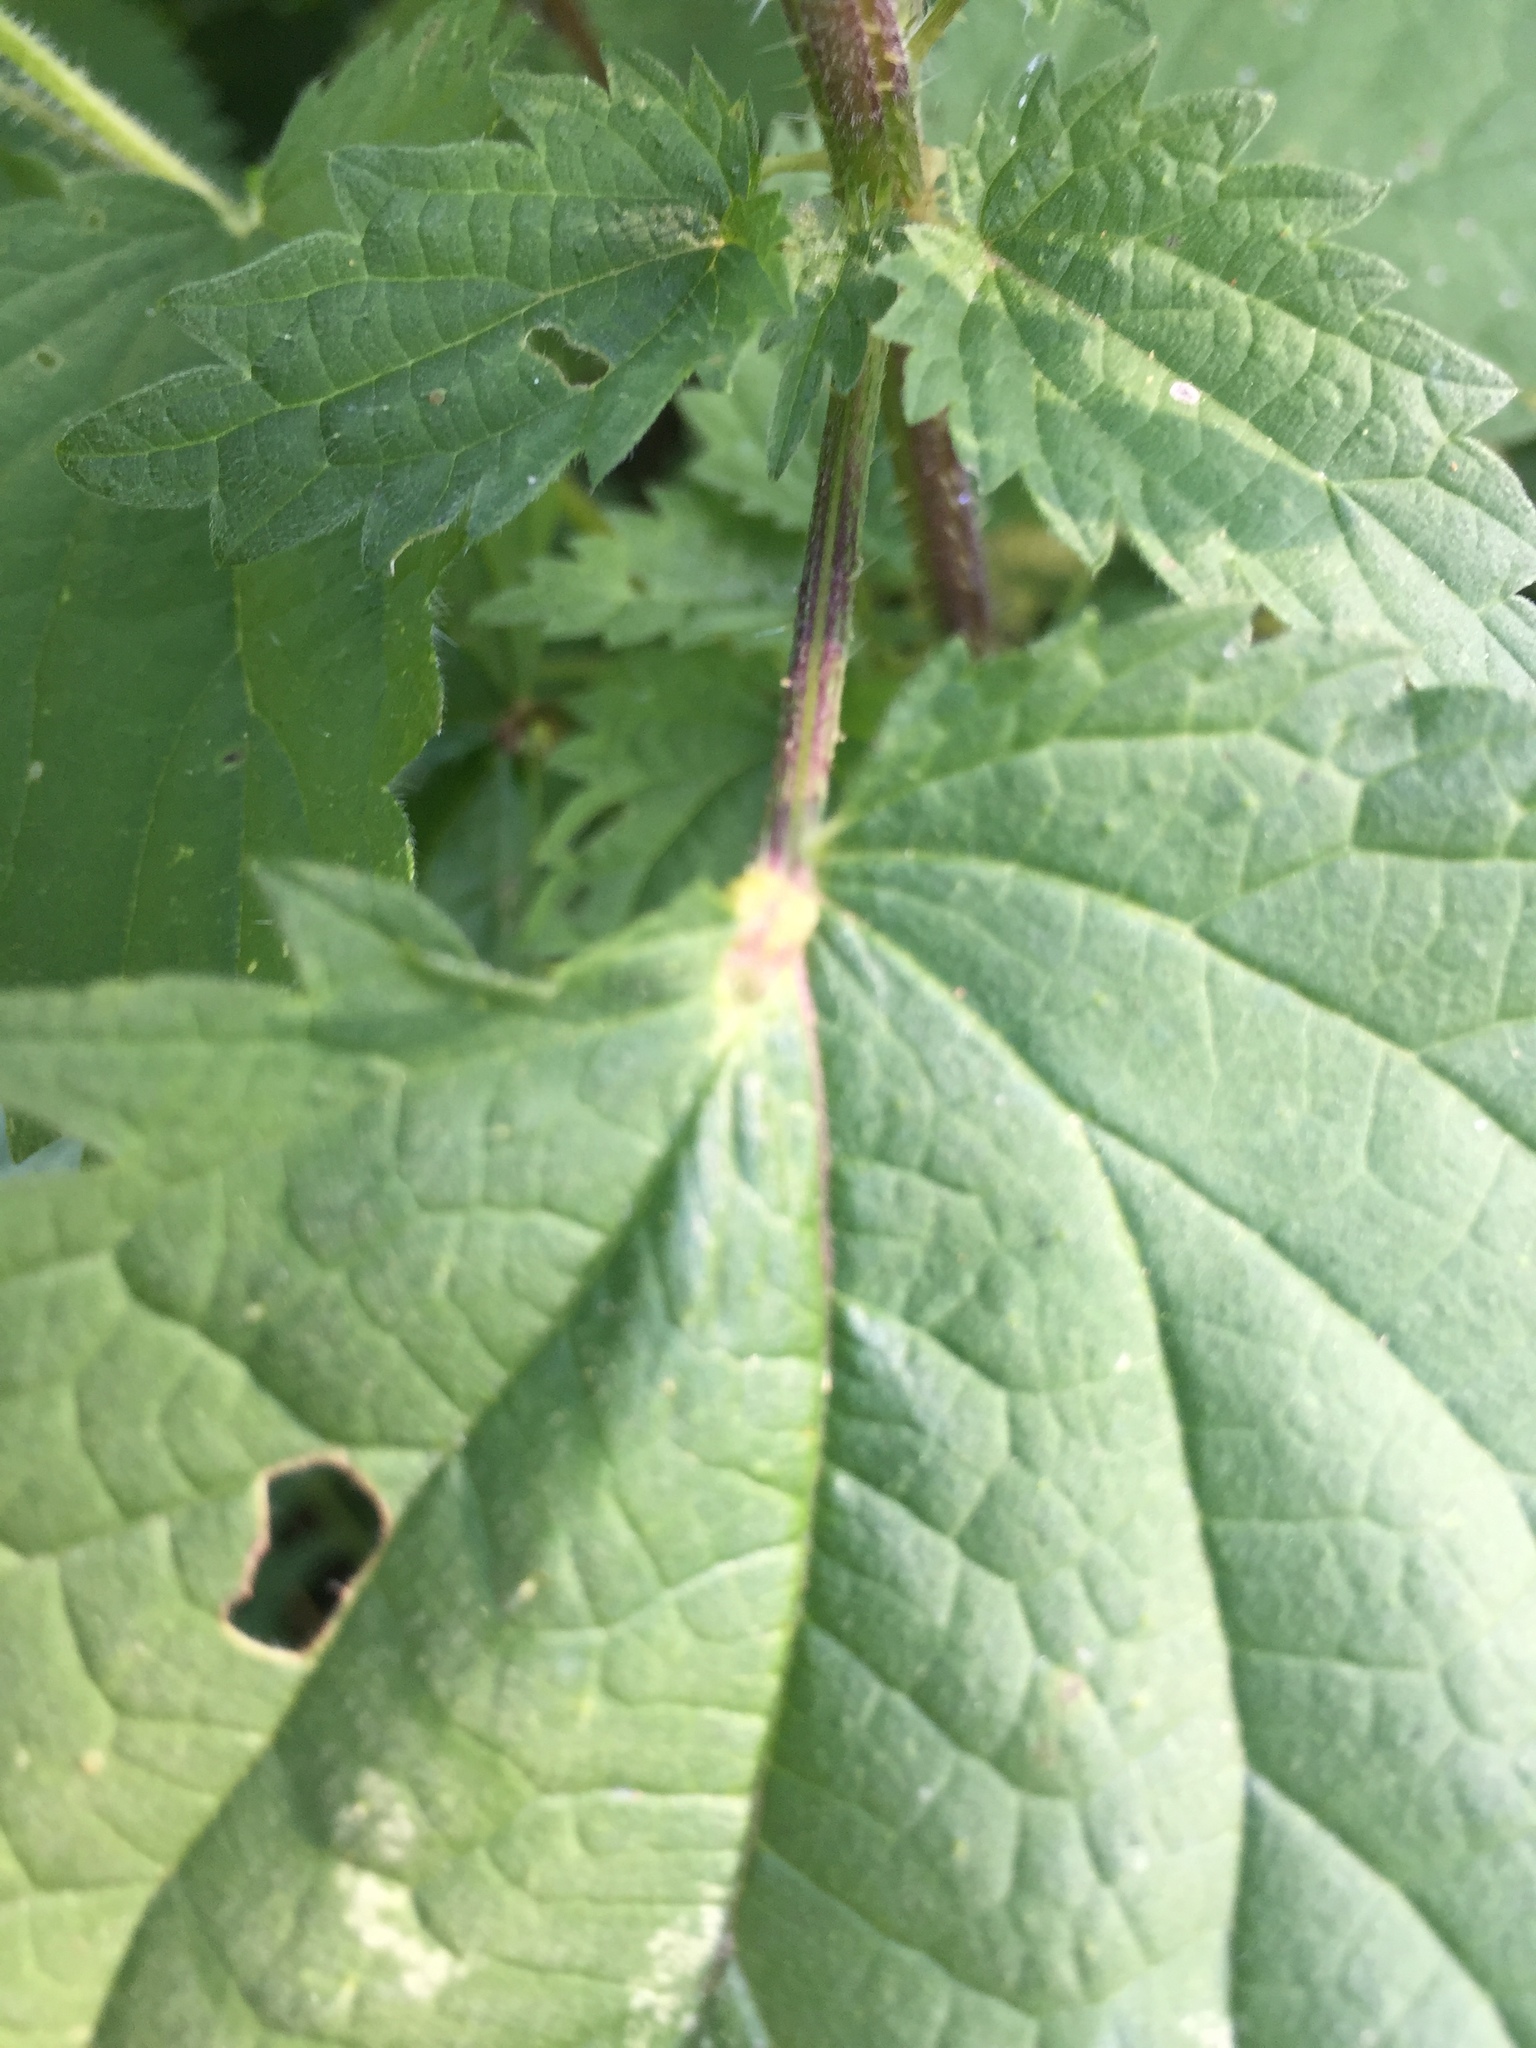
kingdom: Animalia
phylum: Arthropoda
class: Insecta
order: Diptera
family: Cecidomyiidae
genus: Dasineura
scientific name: Dasineura urticae
